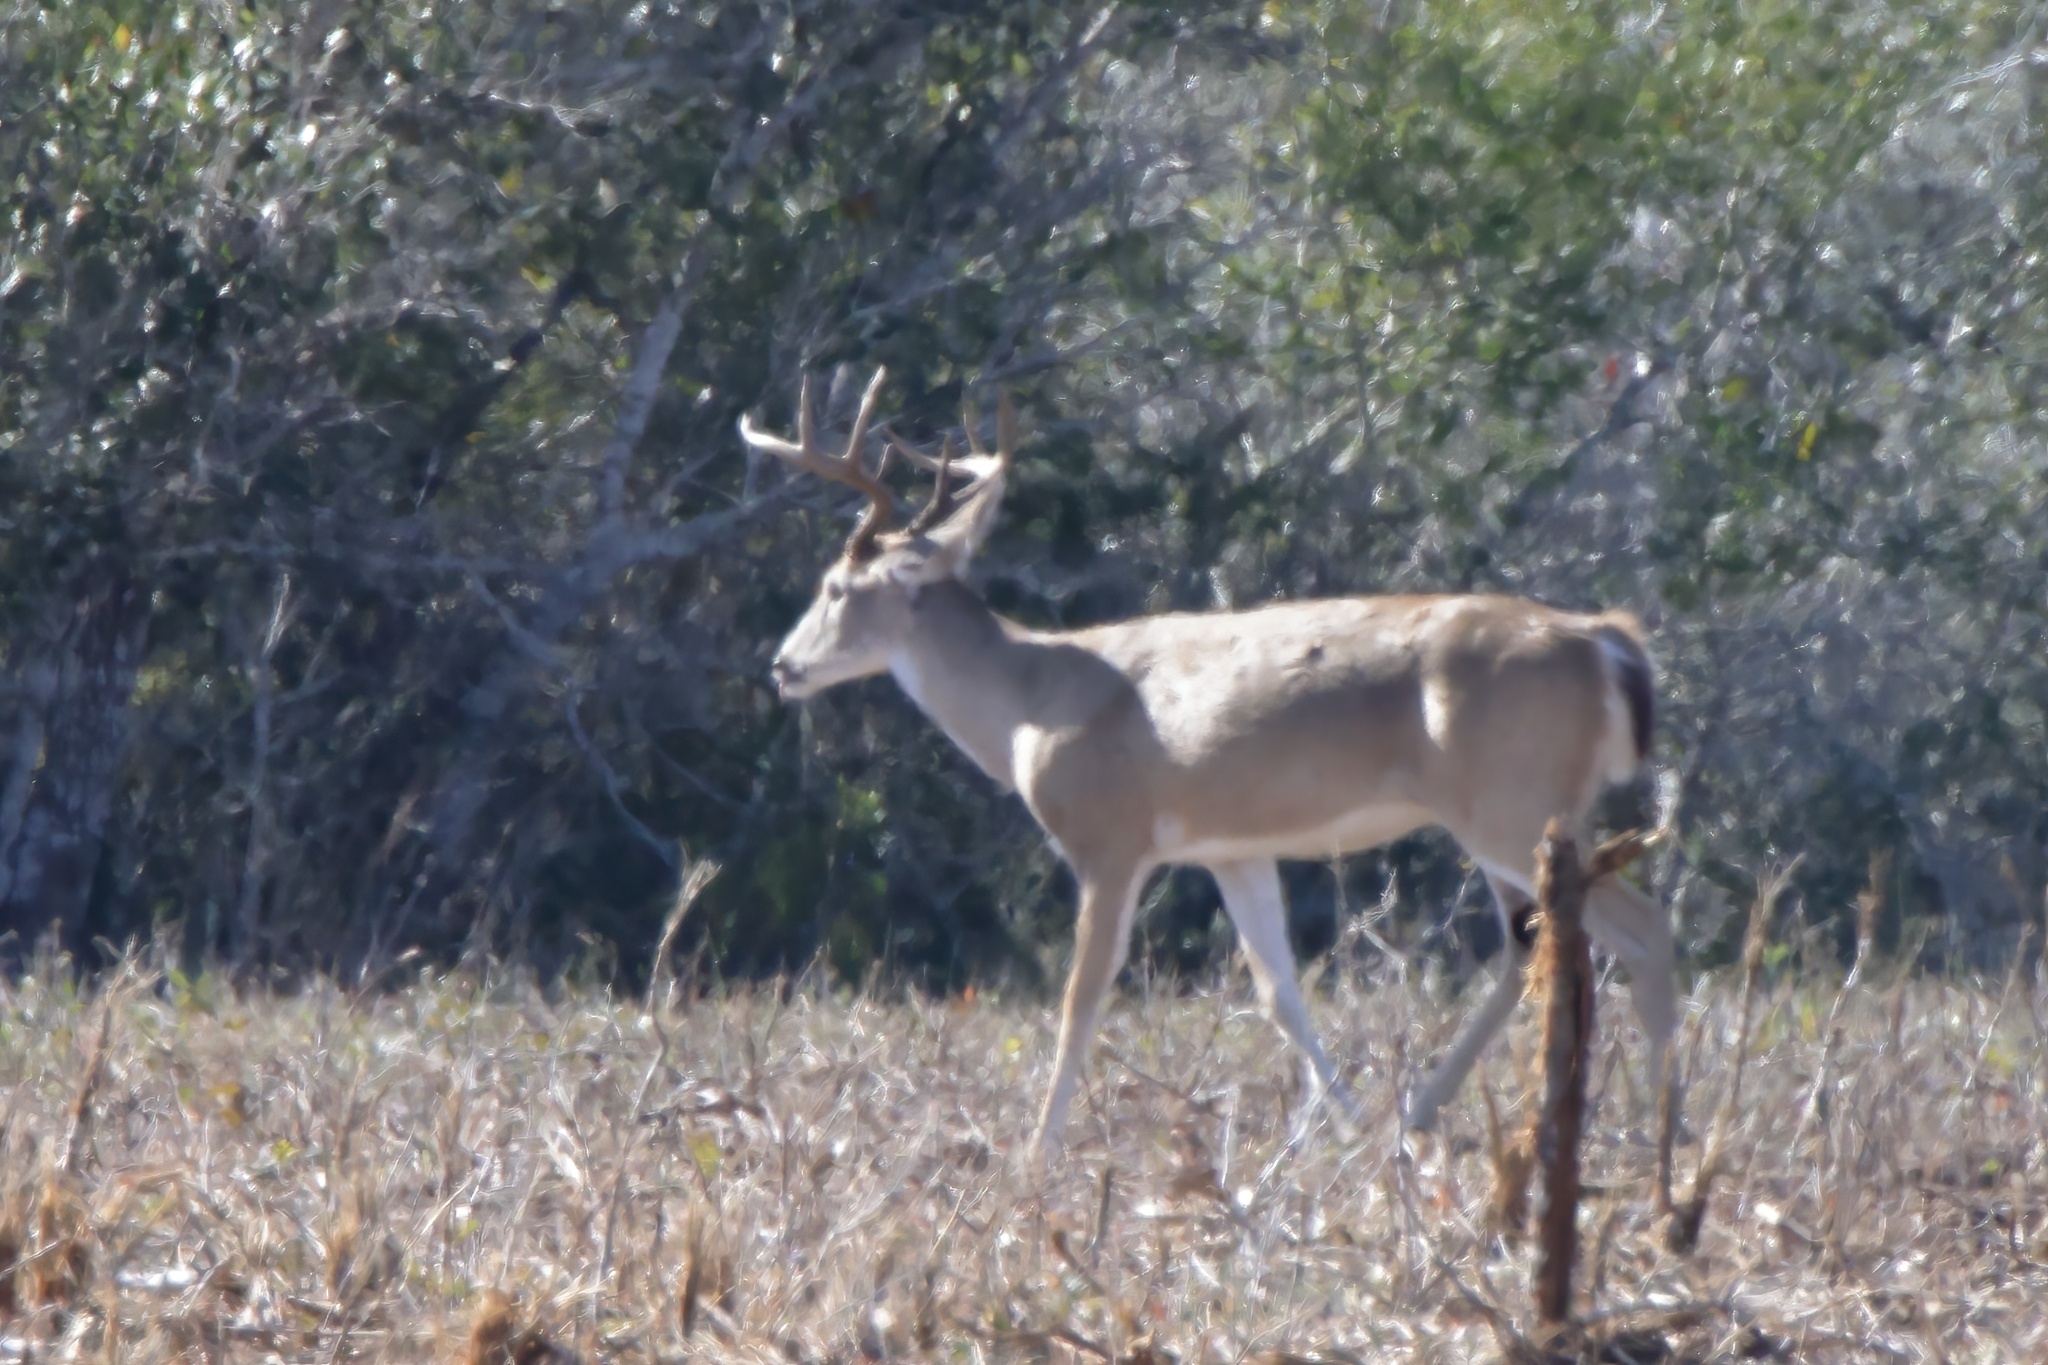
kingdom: Animalia
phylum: Chordata
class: Mammalia
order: Artiodactyla
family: Cervidae
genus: Odocoileus
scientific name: Odocoileus virginianus
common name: White-tailed deer
